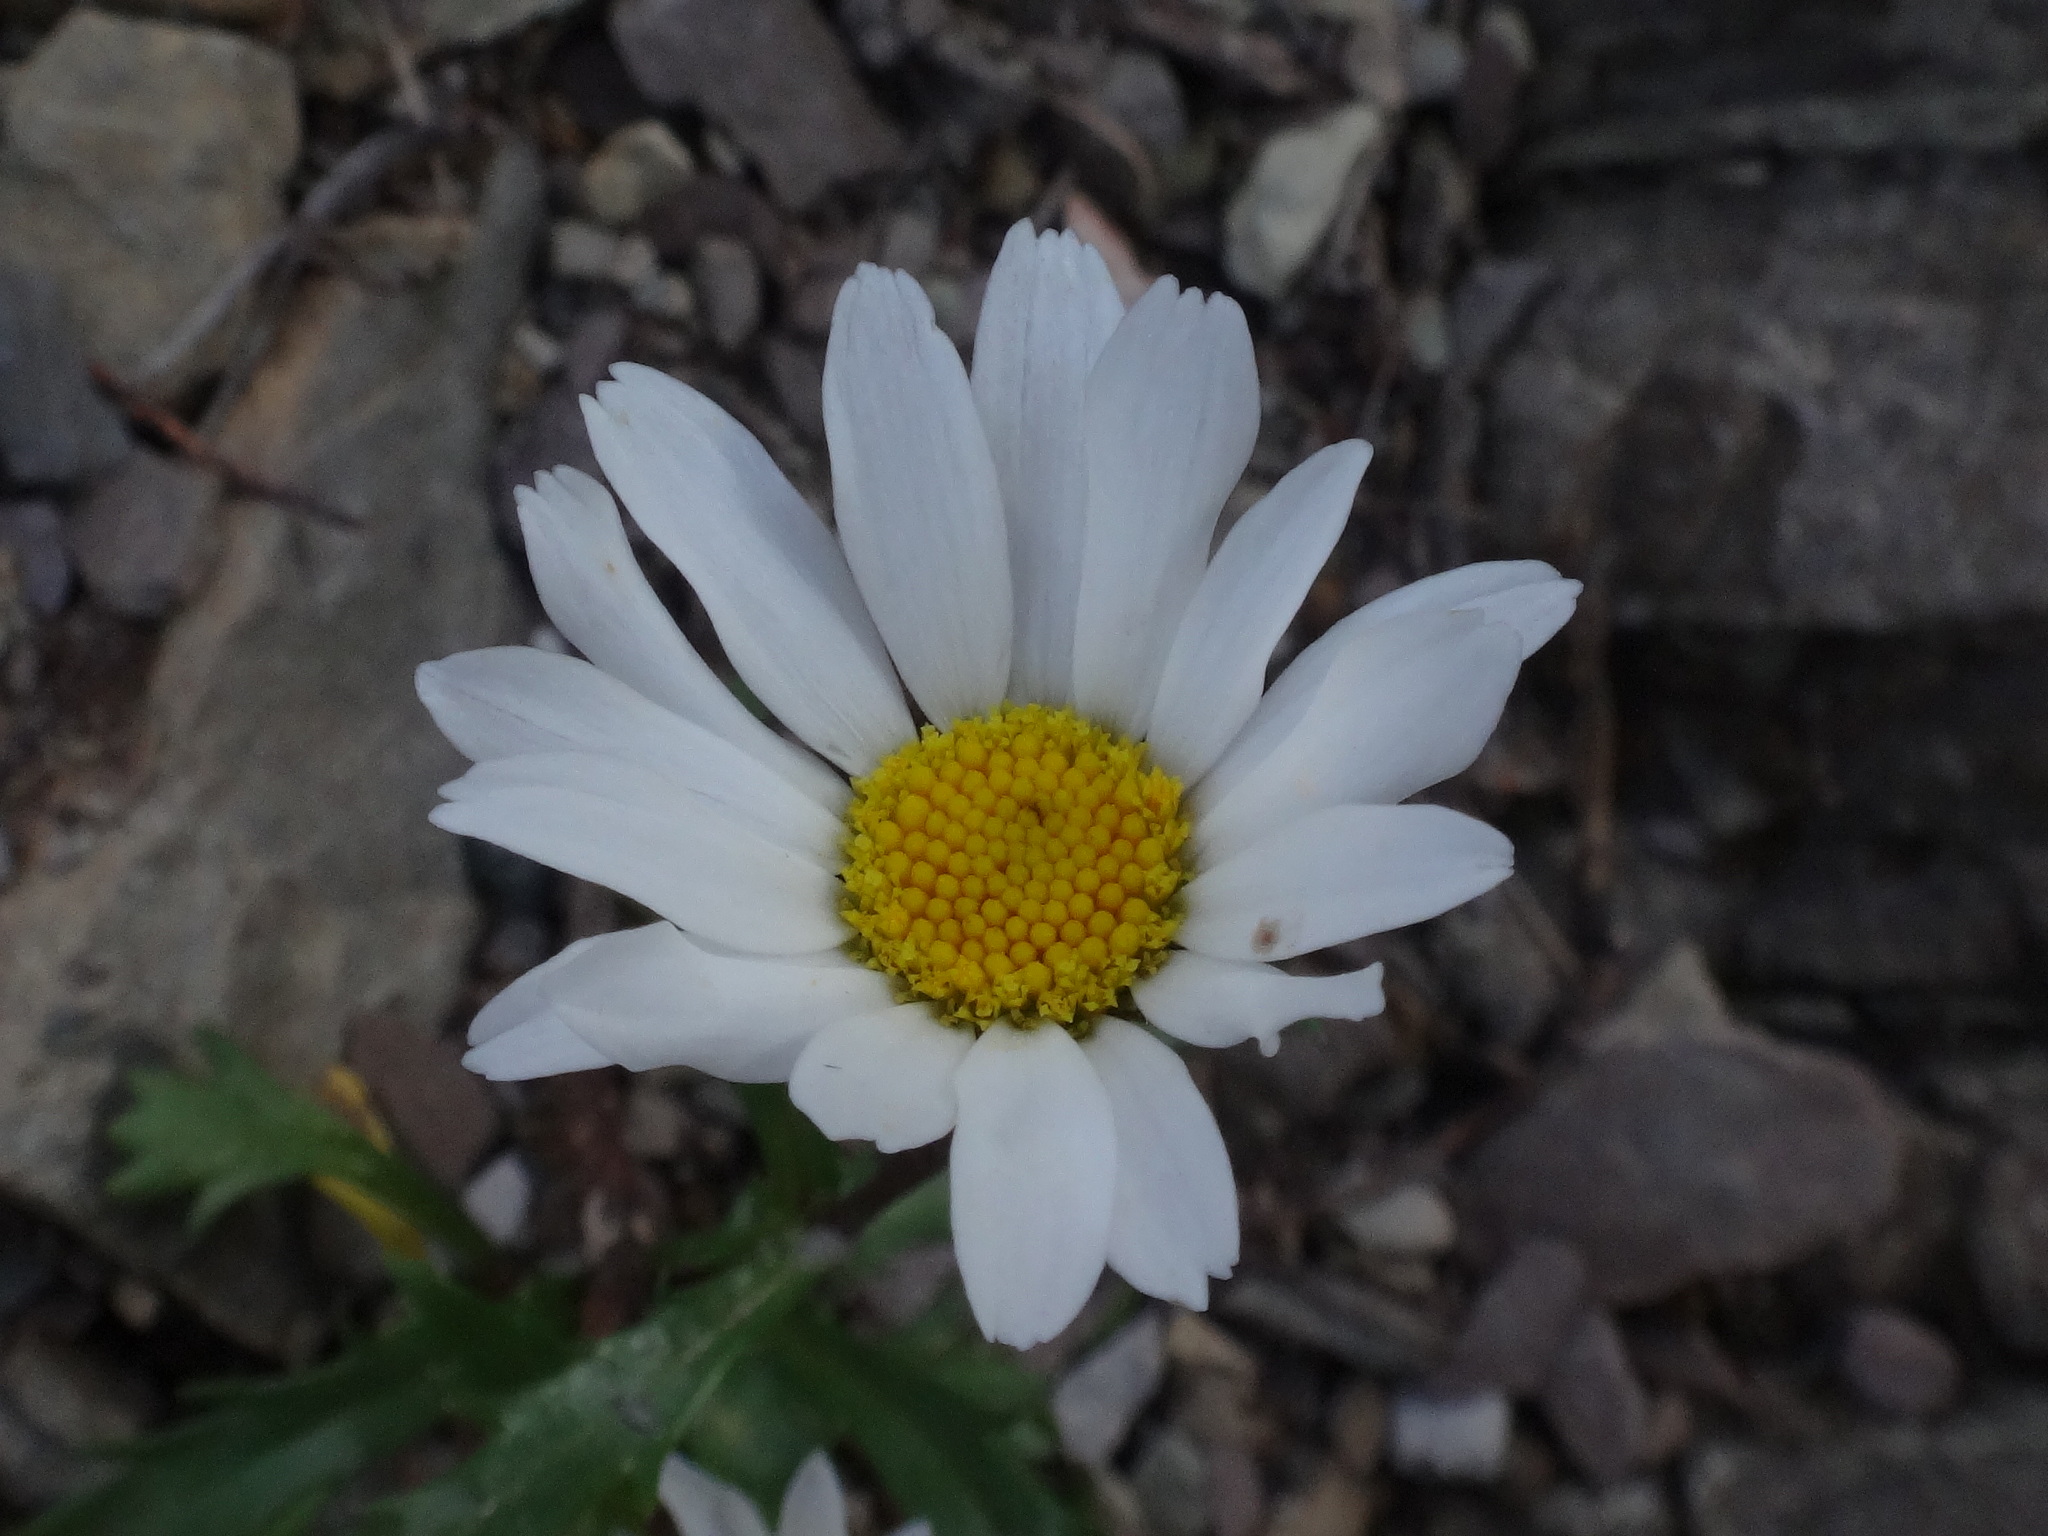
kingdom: Plantae
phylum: Tracheophyta
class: Magnoliopsida
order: Asterales
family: Asteraceae
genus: Leucanthemum
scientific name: Leucanthemum atratum
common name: Saw-leaved moon-daisy
